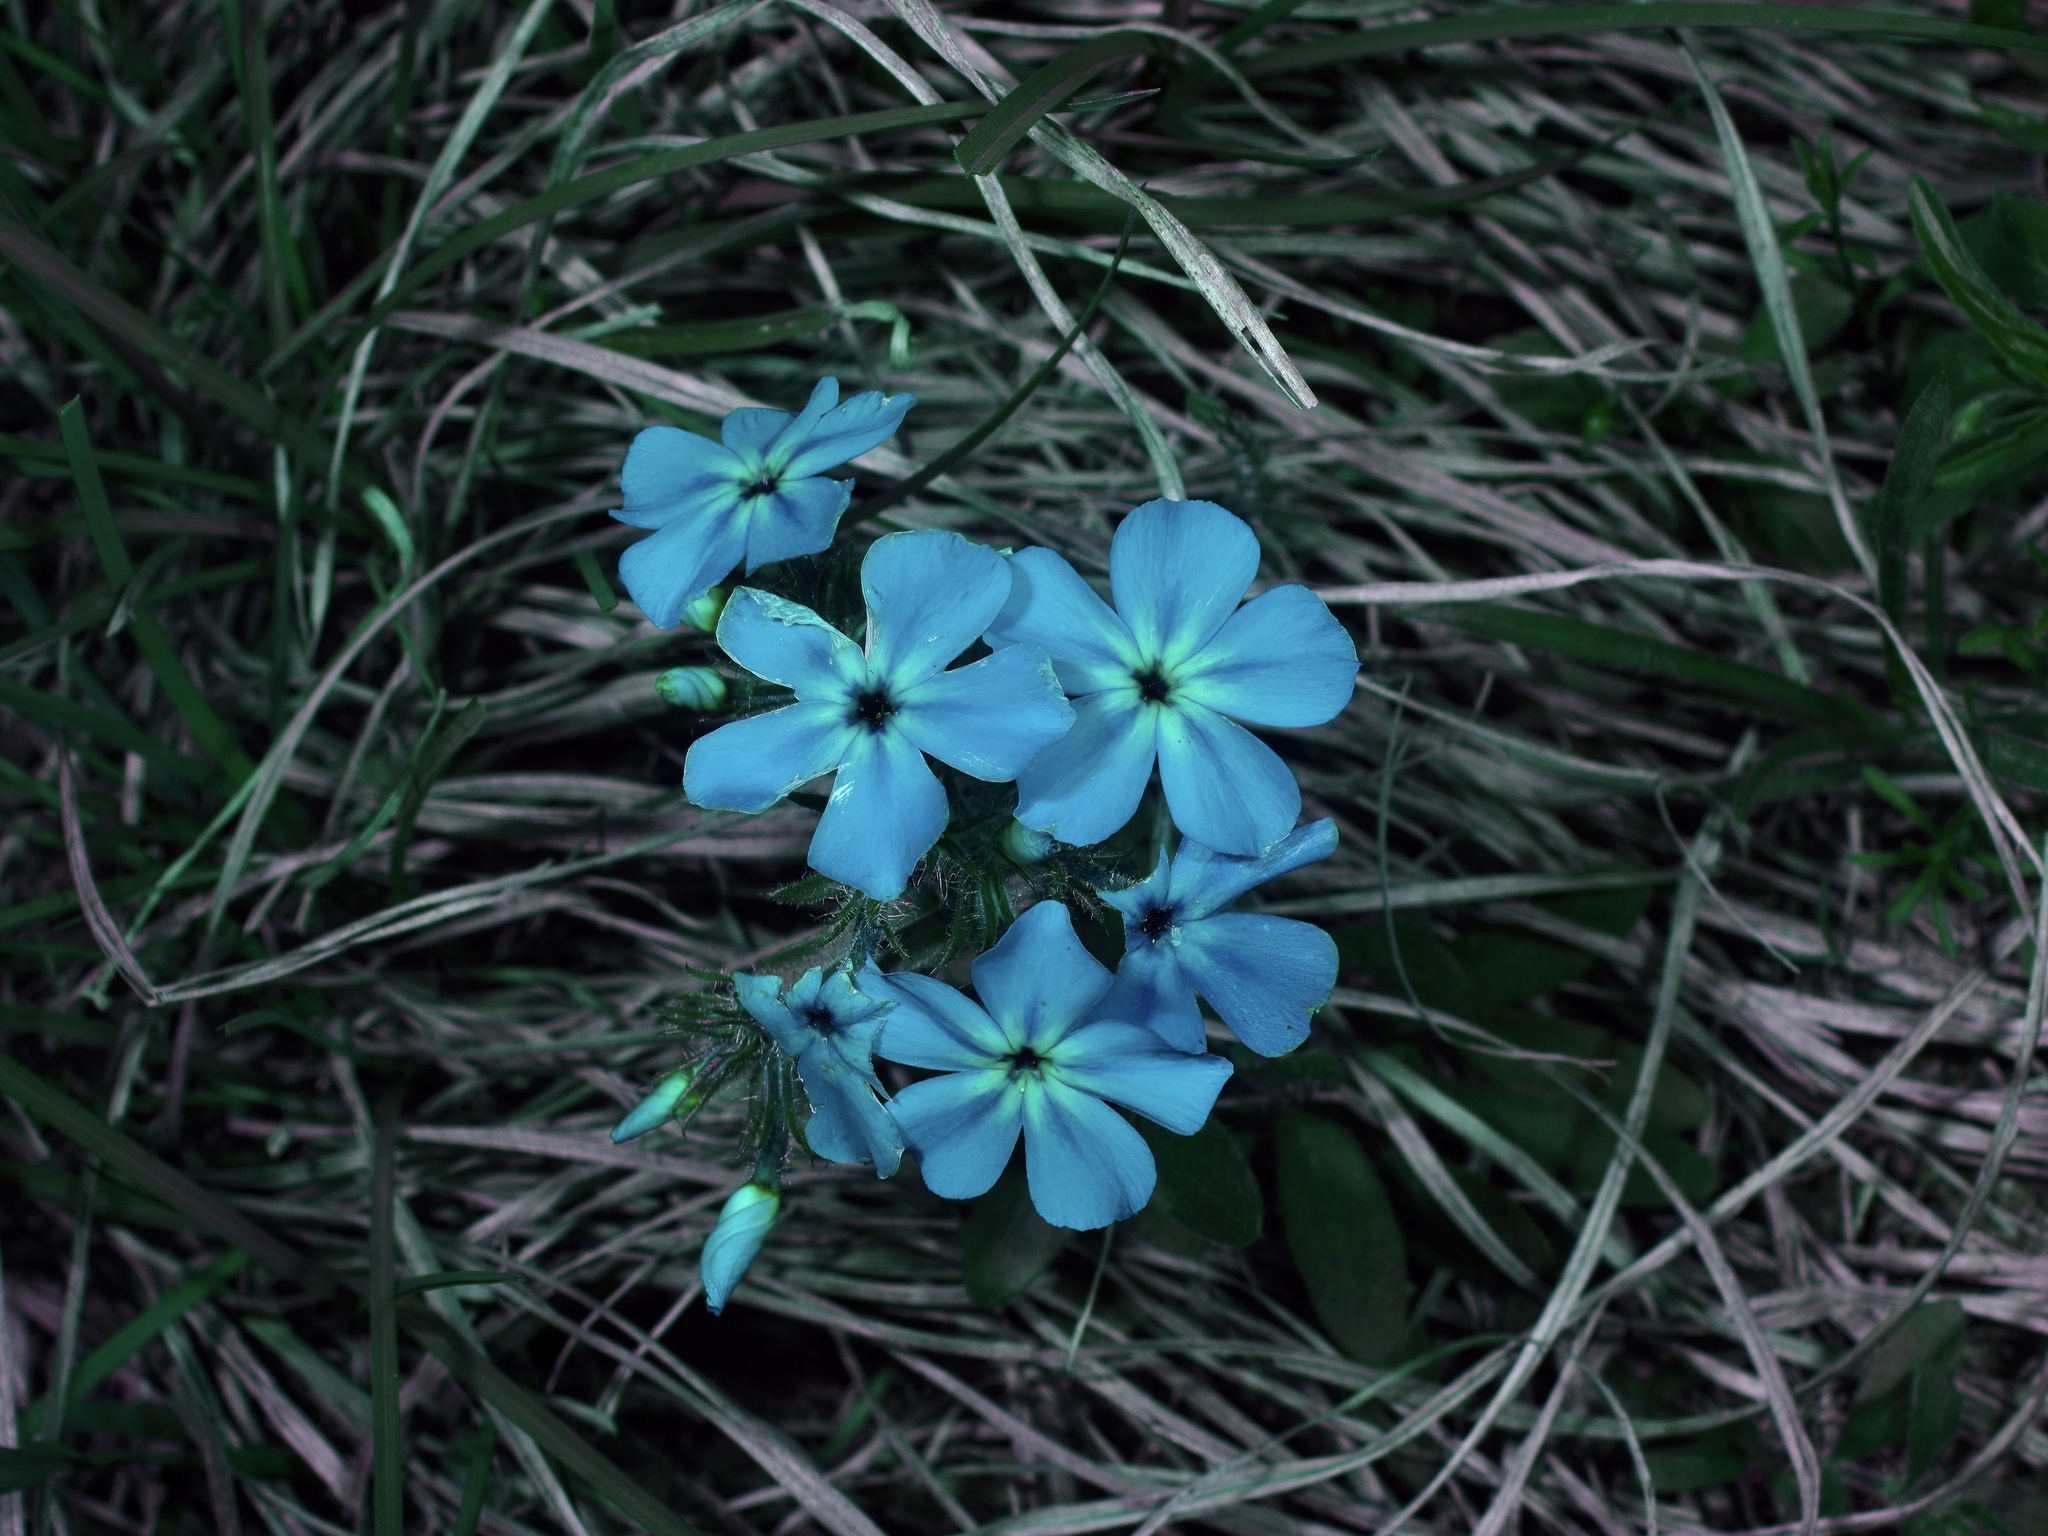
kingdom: Plantae
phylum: Tracheophyta
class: Magnoliopsida
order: Ericales
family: Polemoniaceae
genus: Phlox
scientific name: Phlox drummondii
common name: Drummond's phlox
